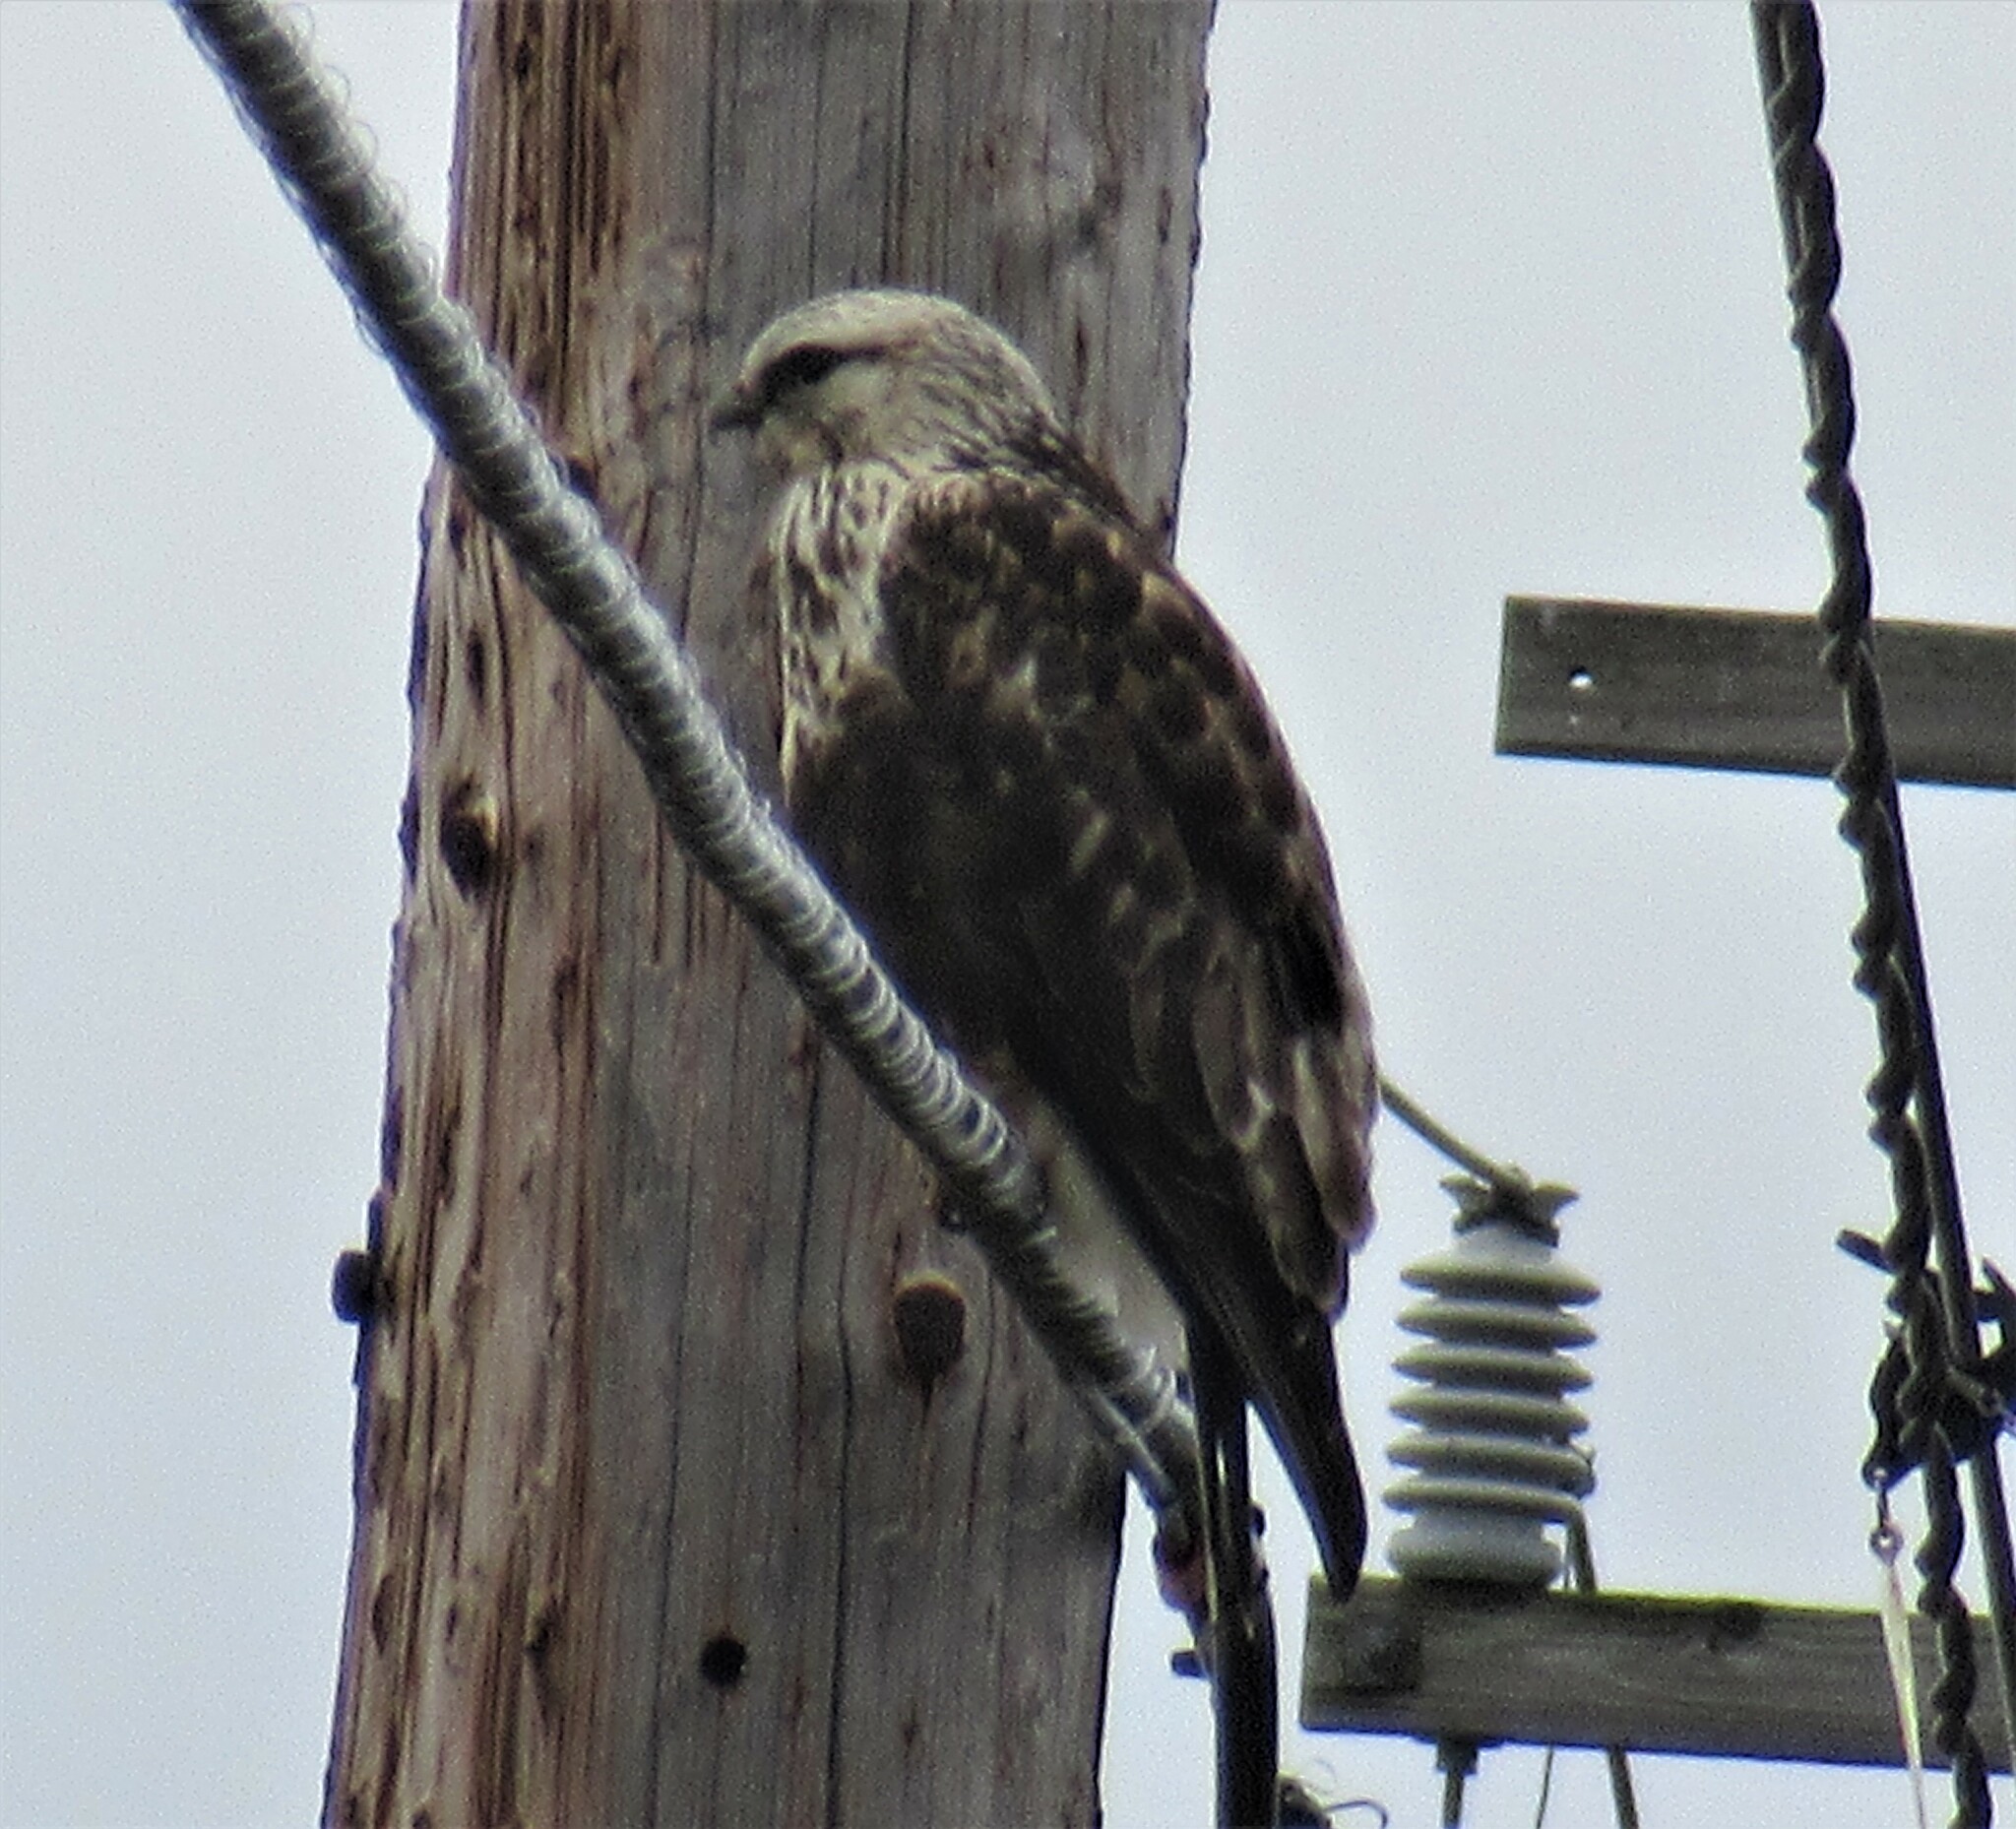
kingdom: Animalia
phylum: Chordata
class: Aves
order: Accipitriformes
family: Accipitridae
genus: Buteo
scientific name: Buteo lagopus
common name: Rough-legged buzzard
